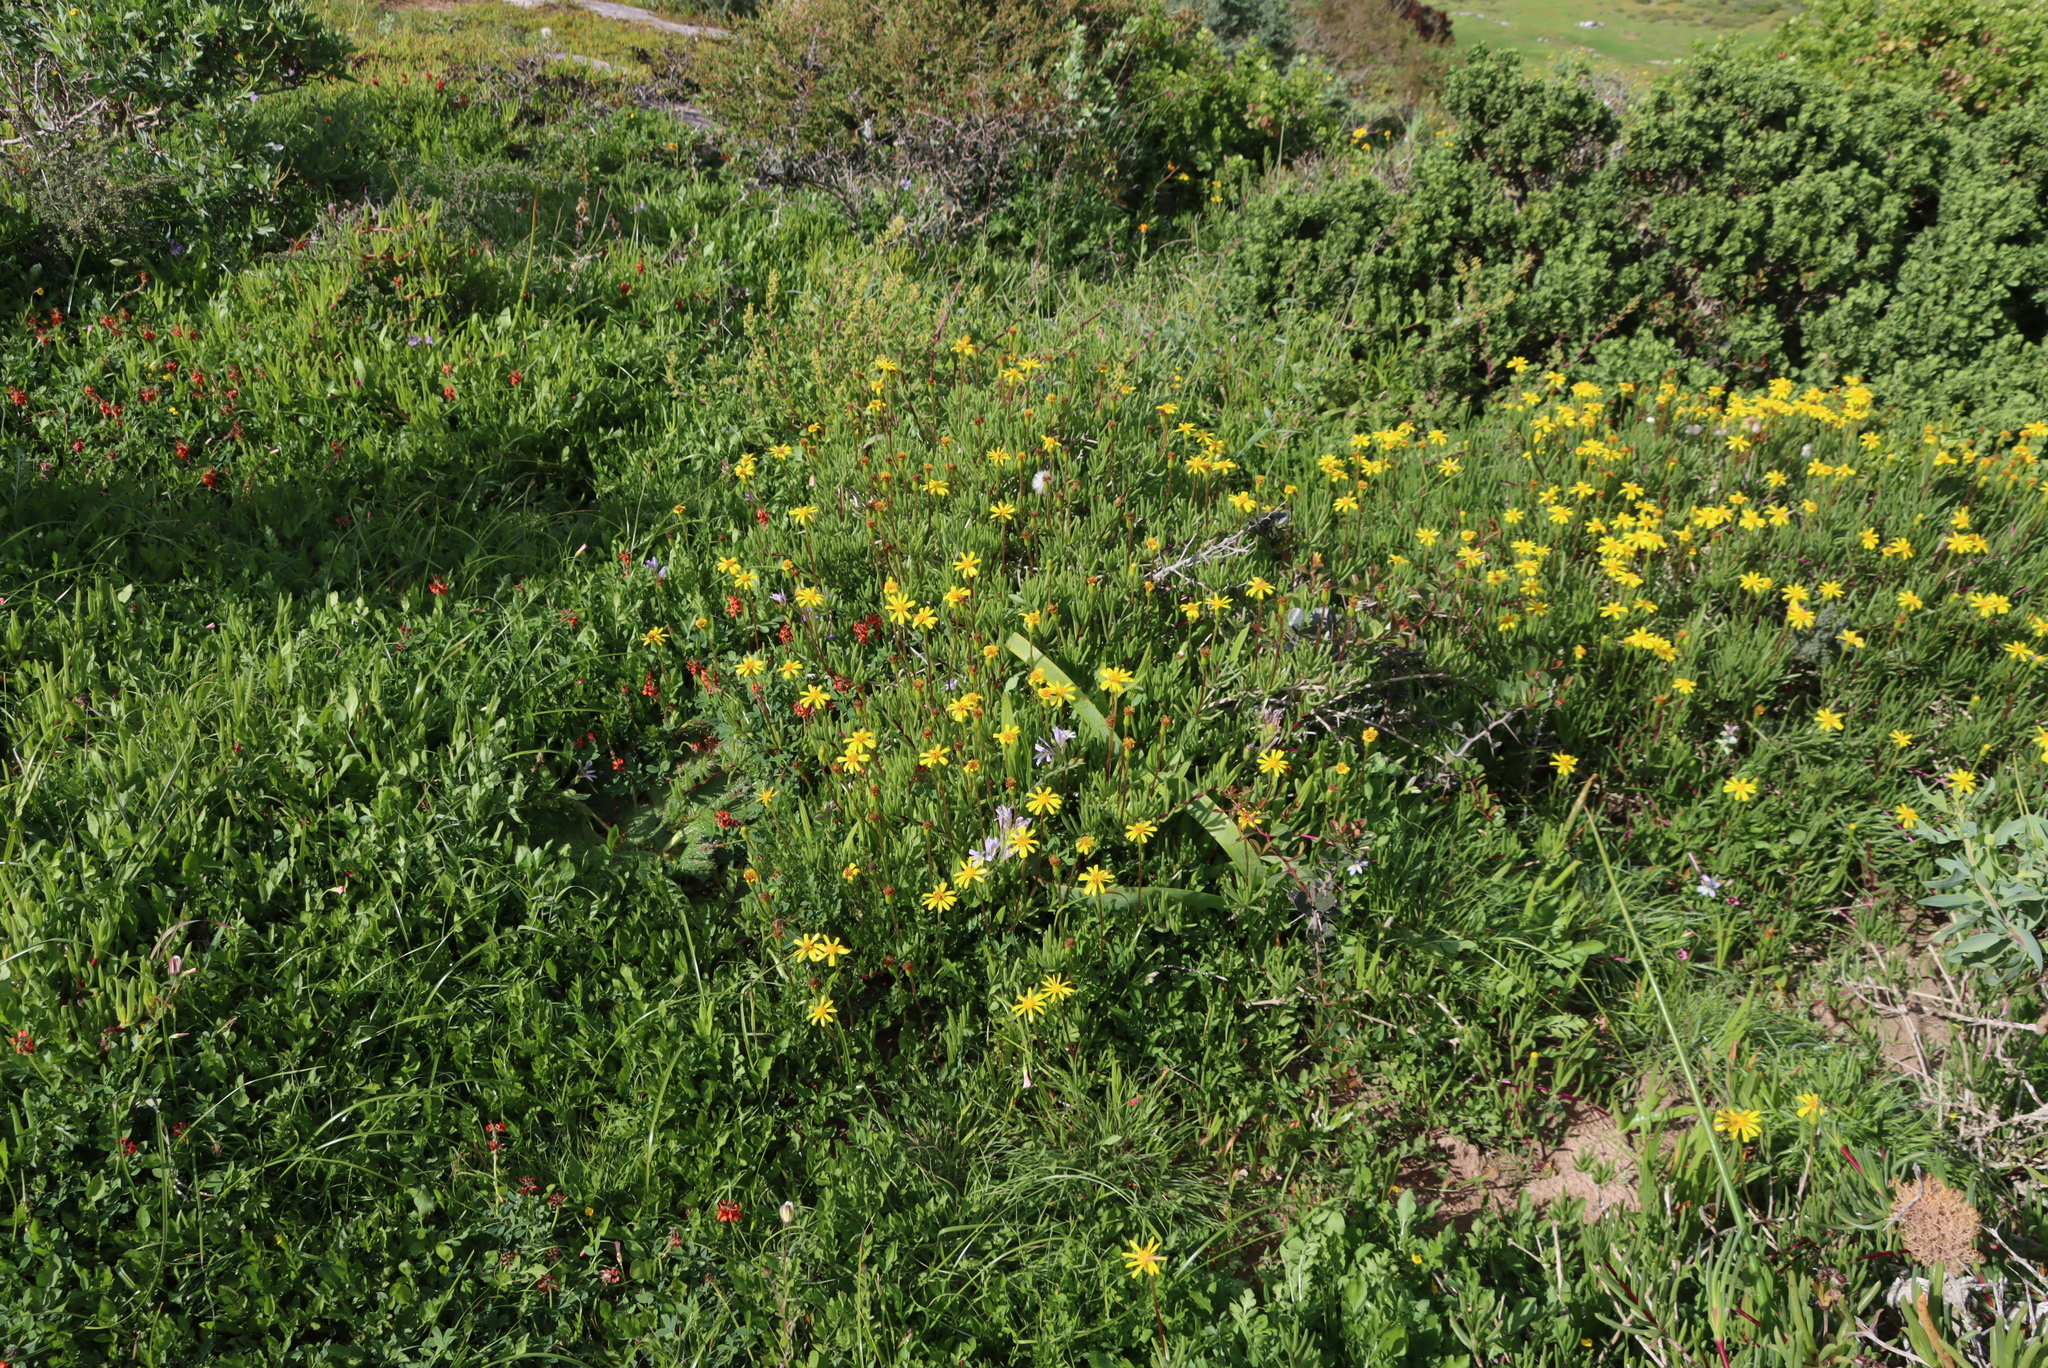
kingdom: Plantae
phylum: Tracheophyta
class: Magnoliopsida
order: Fabales
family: Fabaceae
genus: Indigofera
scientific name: Indigofera
